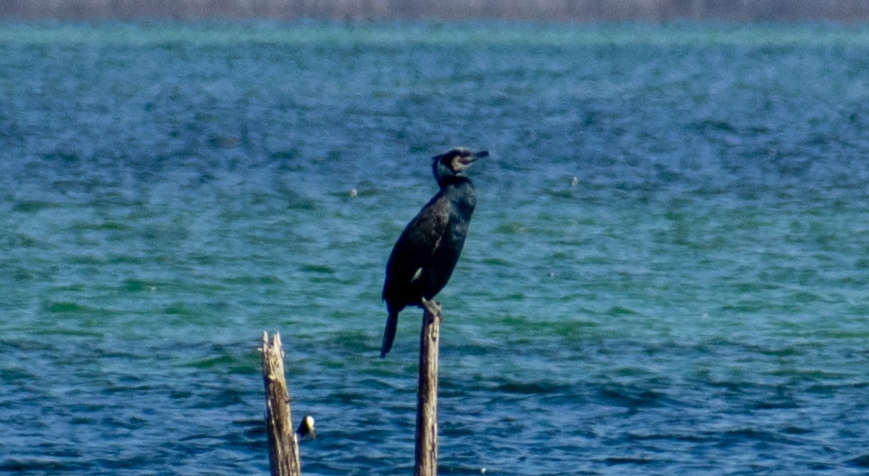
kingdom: Animalia
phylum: Chordata
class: Aves
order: Suliformes
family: Phalacrocoracidae
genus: Phalacrocorax
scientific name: Phalacrocorax carbo
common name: Great cormorant
